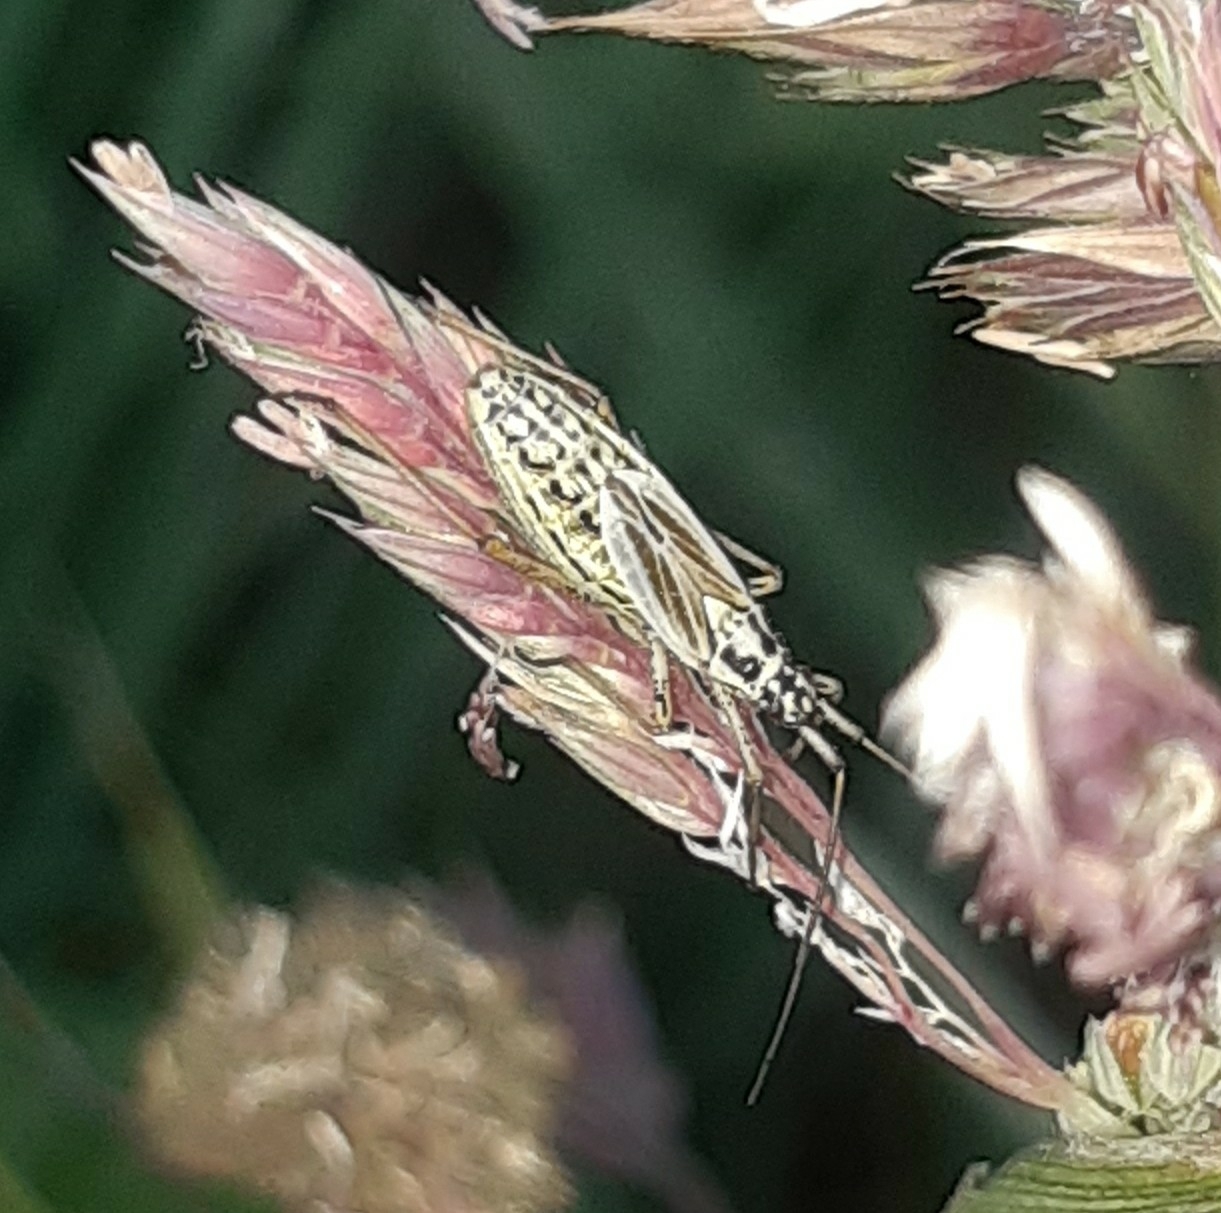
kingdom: Animalia
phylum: Arthropoda
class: Insecta
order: Hemiptera
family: Miridae
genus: Leptopterna
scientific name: Leptopterna dolabrata
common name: Meadow plant bug
